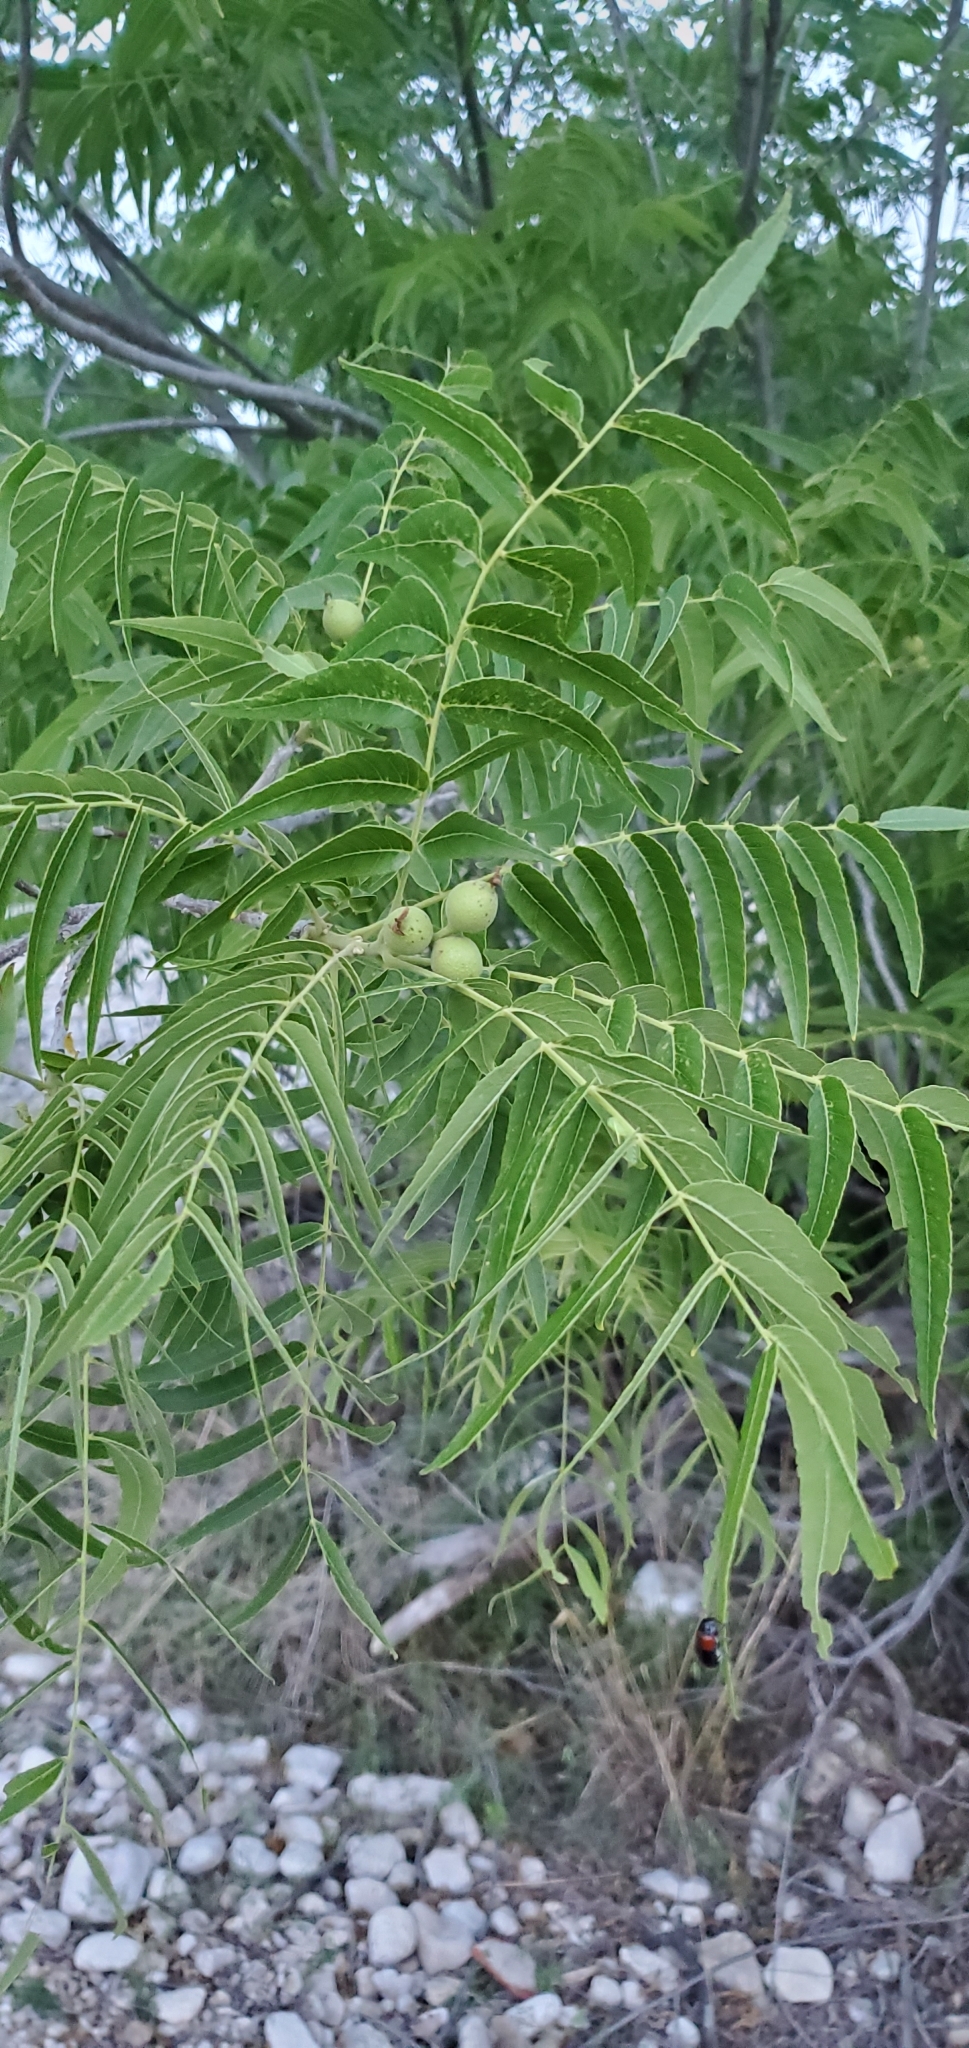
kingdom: Plantae
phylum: Tracheophyta
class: Magnoliopsida
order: Fagales
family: Juglandaceae
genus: Juglans
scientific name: Juglans microcarpa
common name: Texas walnut
